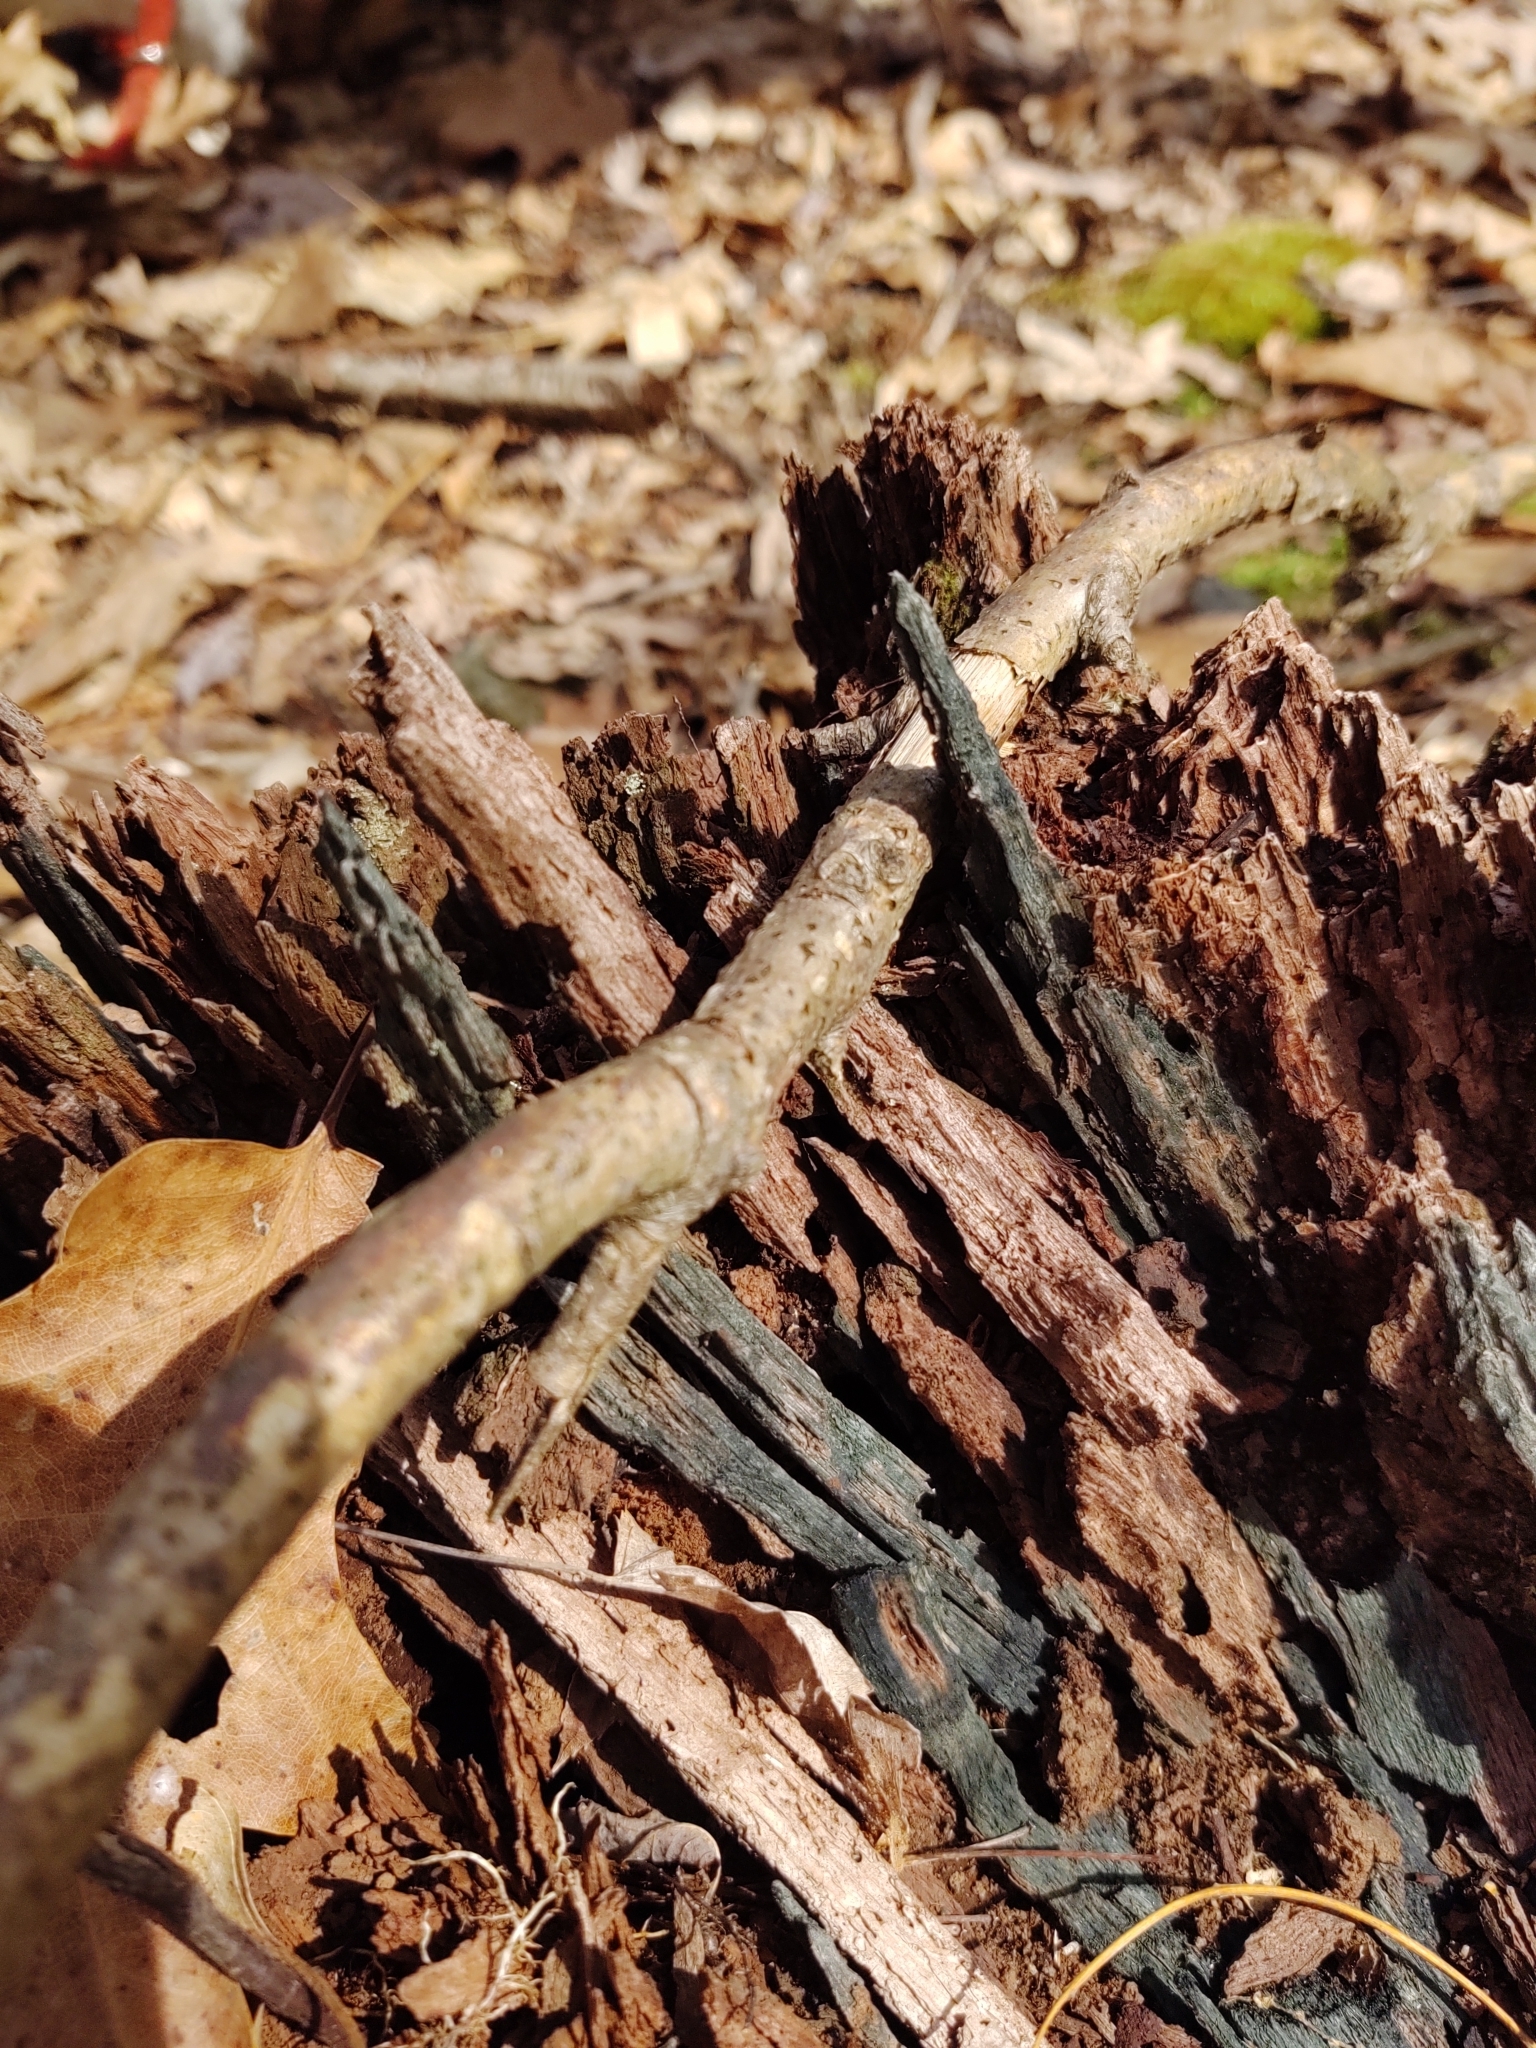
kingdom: Fungi
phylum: Ascomycota
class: Leotiomycetes
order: Helotiales
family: Chlorociboriaceae
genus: Chlorociboria
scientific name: Chlorociboria
